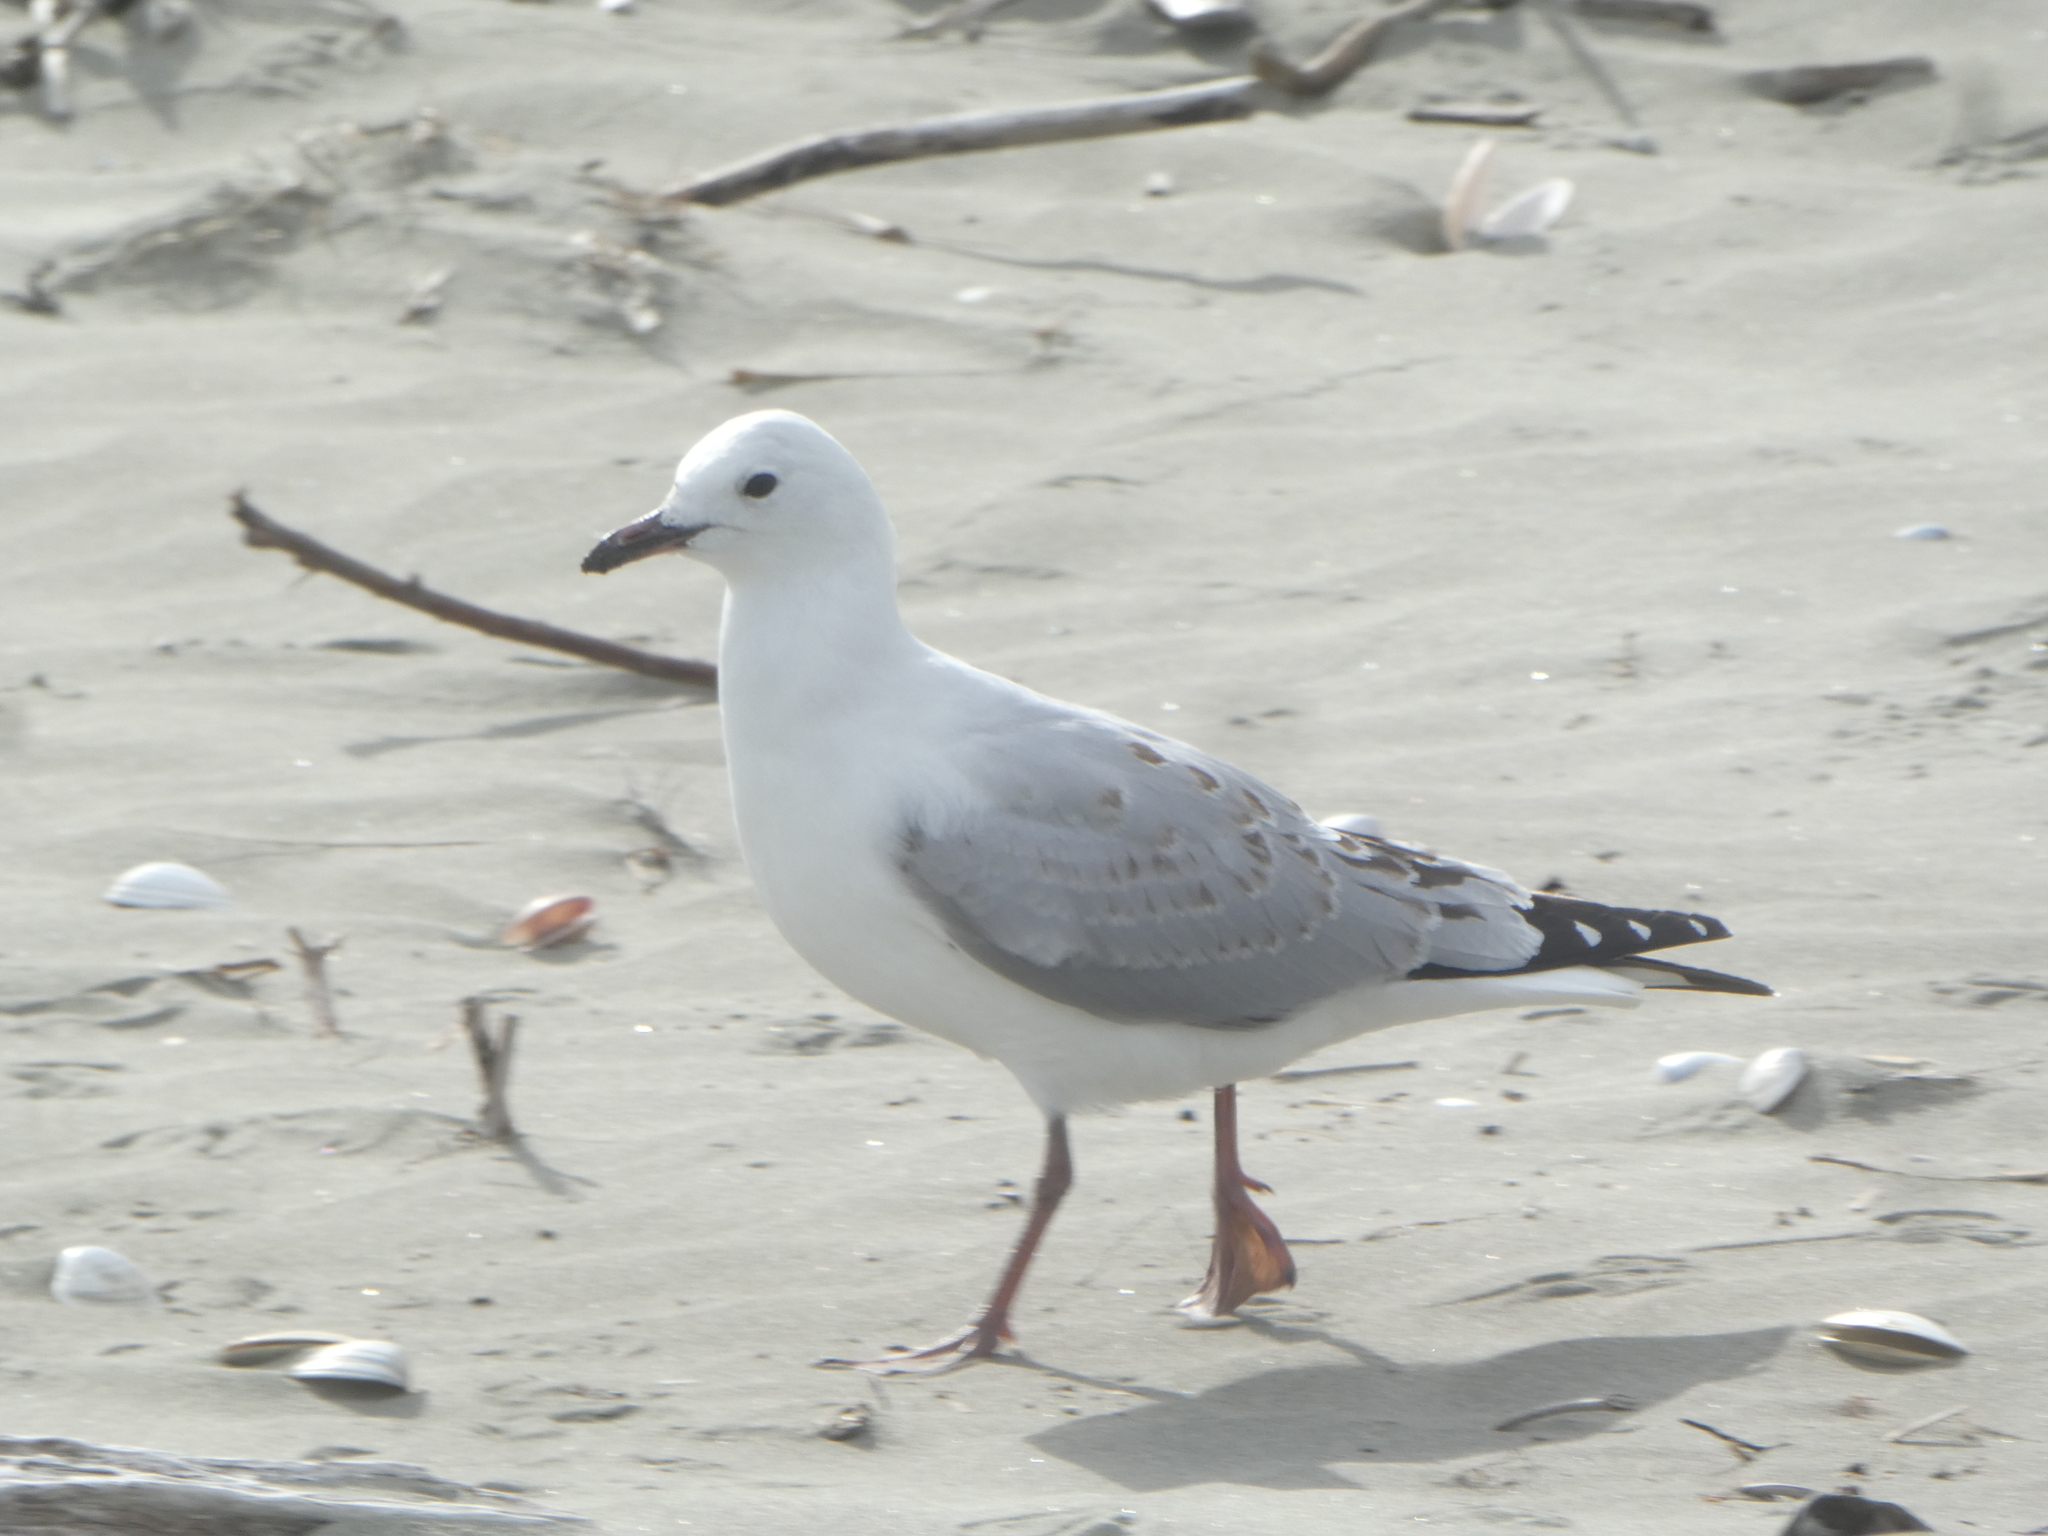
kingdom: Animalia
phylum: Chordata
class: Aves
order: Charadriiformes
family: Laridae
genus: Chroicocephalus
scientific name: Chroicocephalus novaehollandiae
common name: Silver gull
